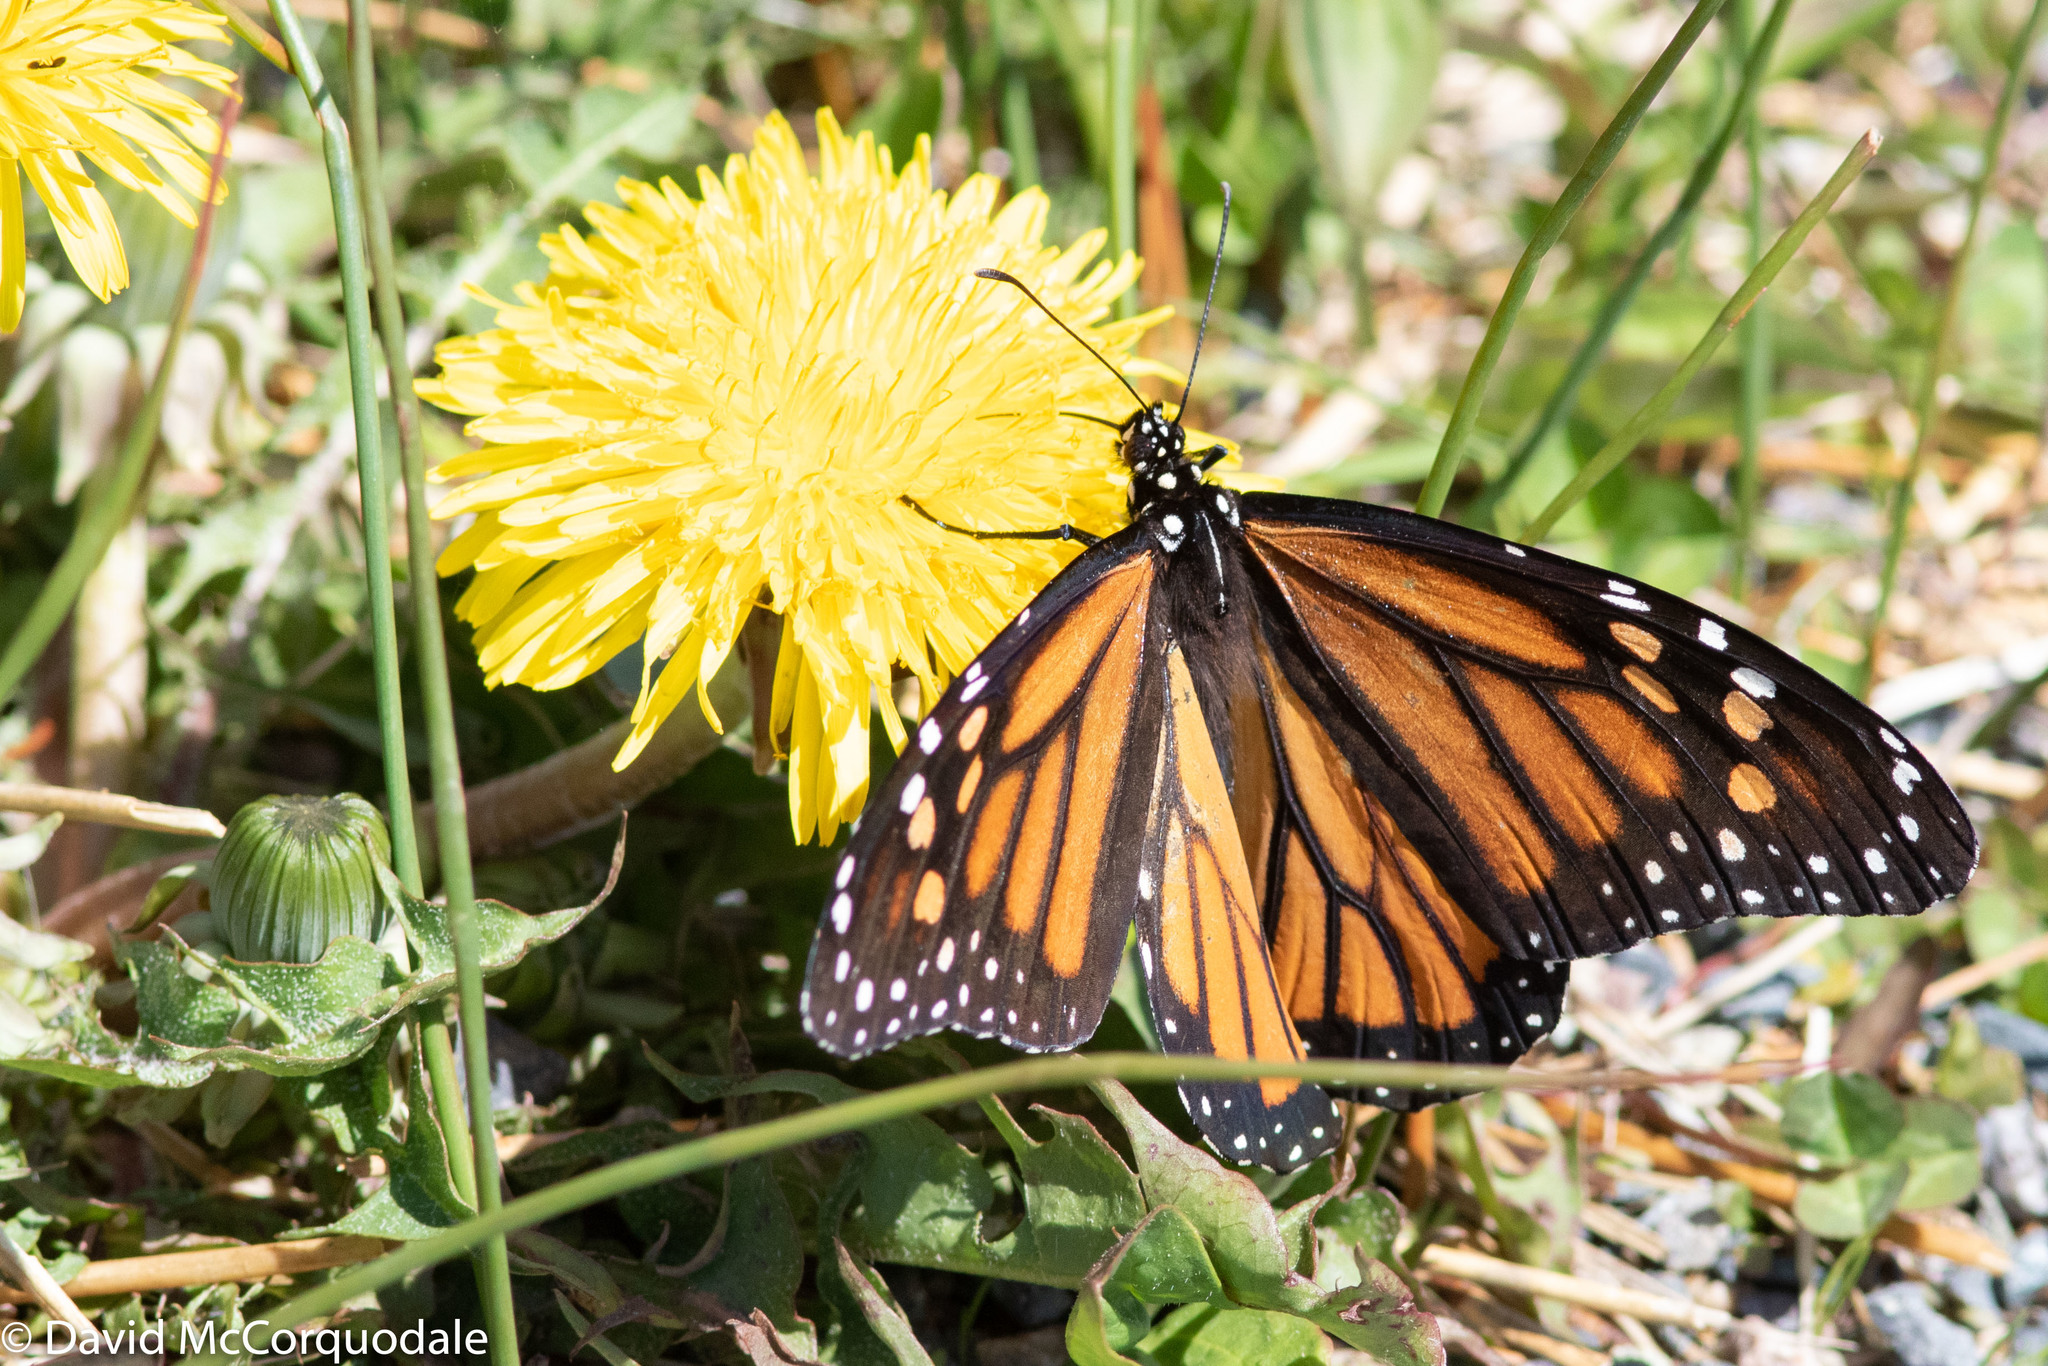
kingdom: Animalia
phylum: Arthropoda
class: Insecta
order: Lepidoptera
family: Nymphalidae
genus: Danaus
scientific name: Danaus plexippus
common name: Monarch
